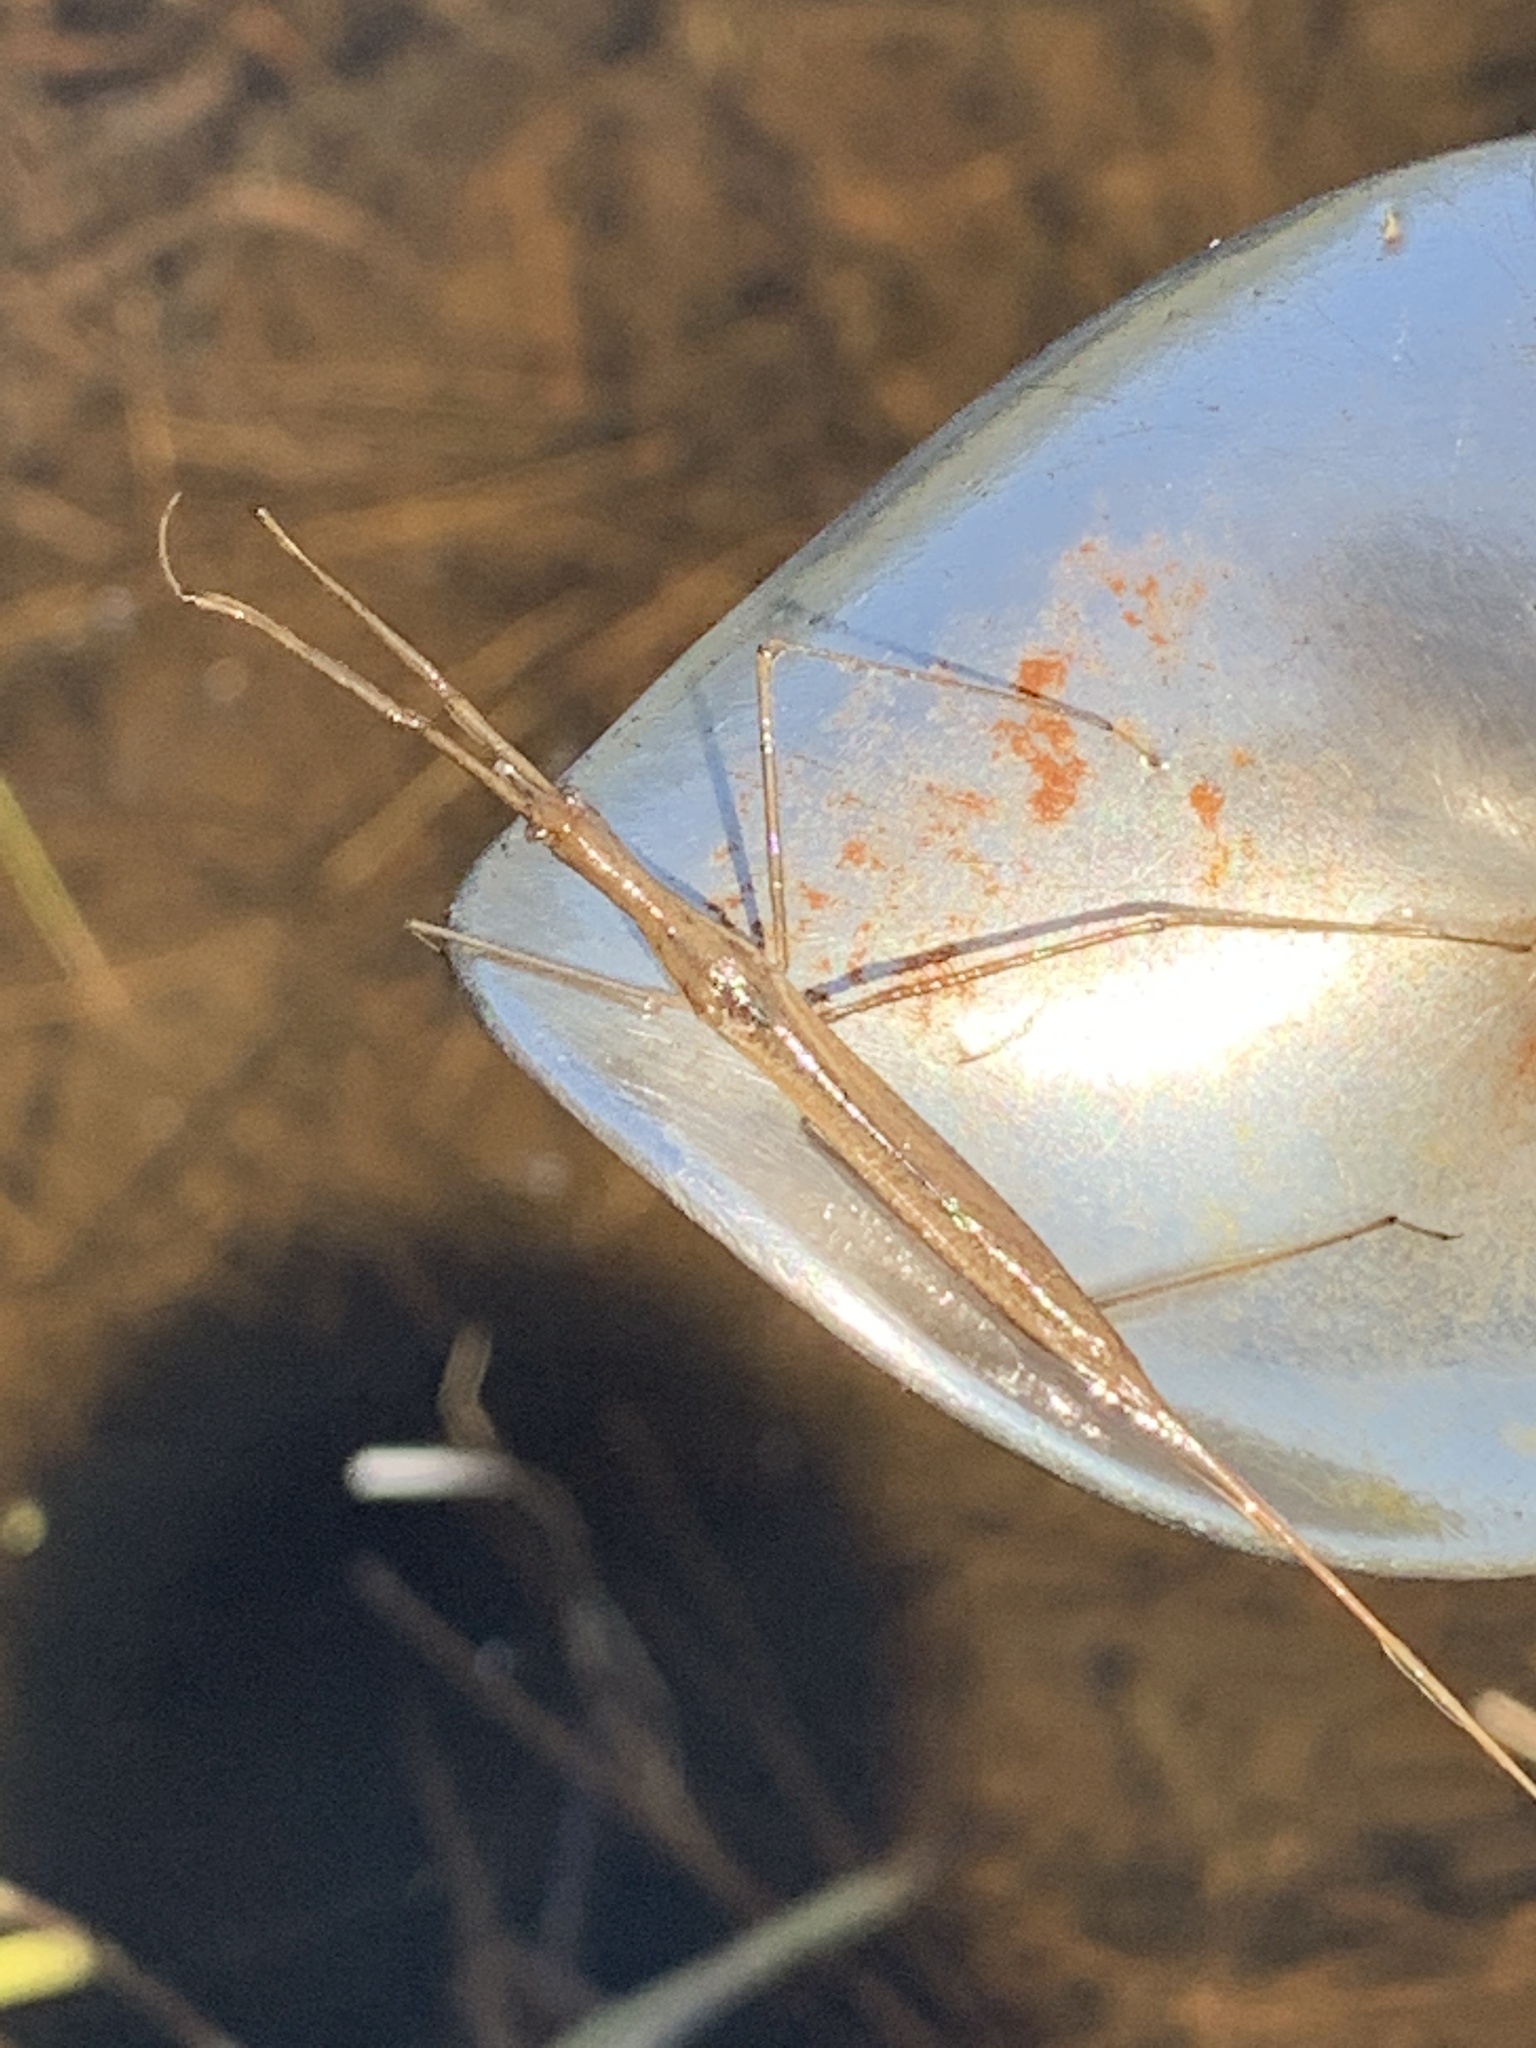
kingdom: Animalia
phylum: Arthropoda
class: Insecta
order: Hemiptera
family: Nepidae
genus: Ranatra
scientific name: Ranatra
